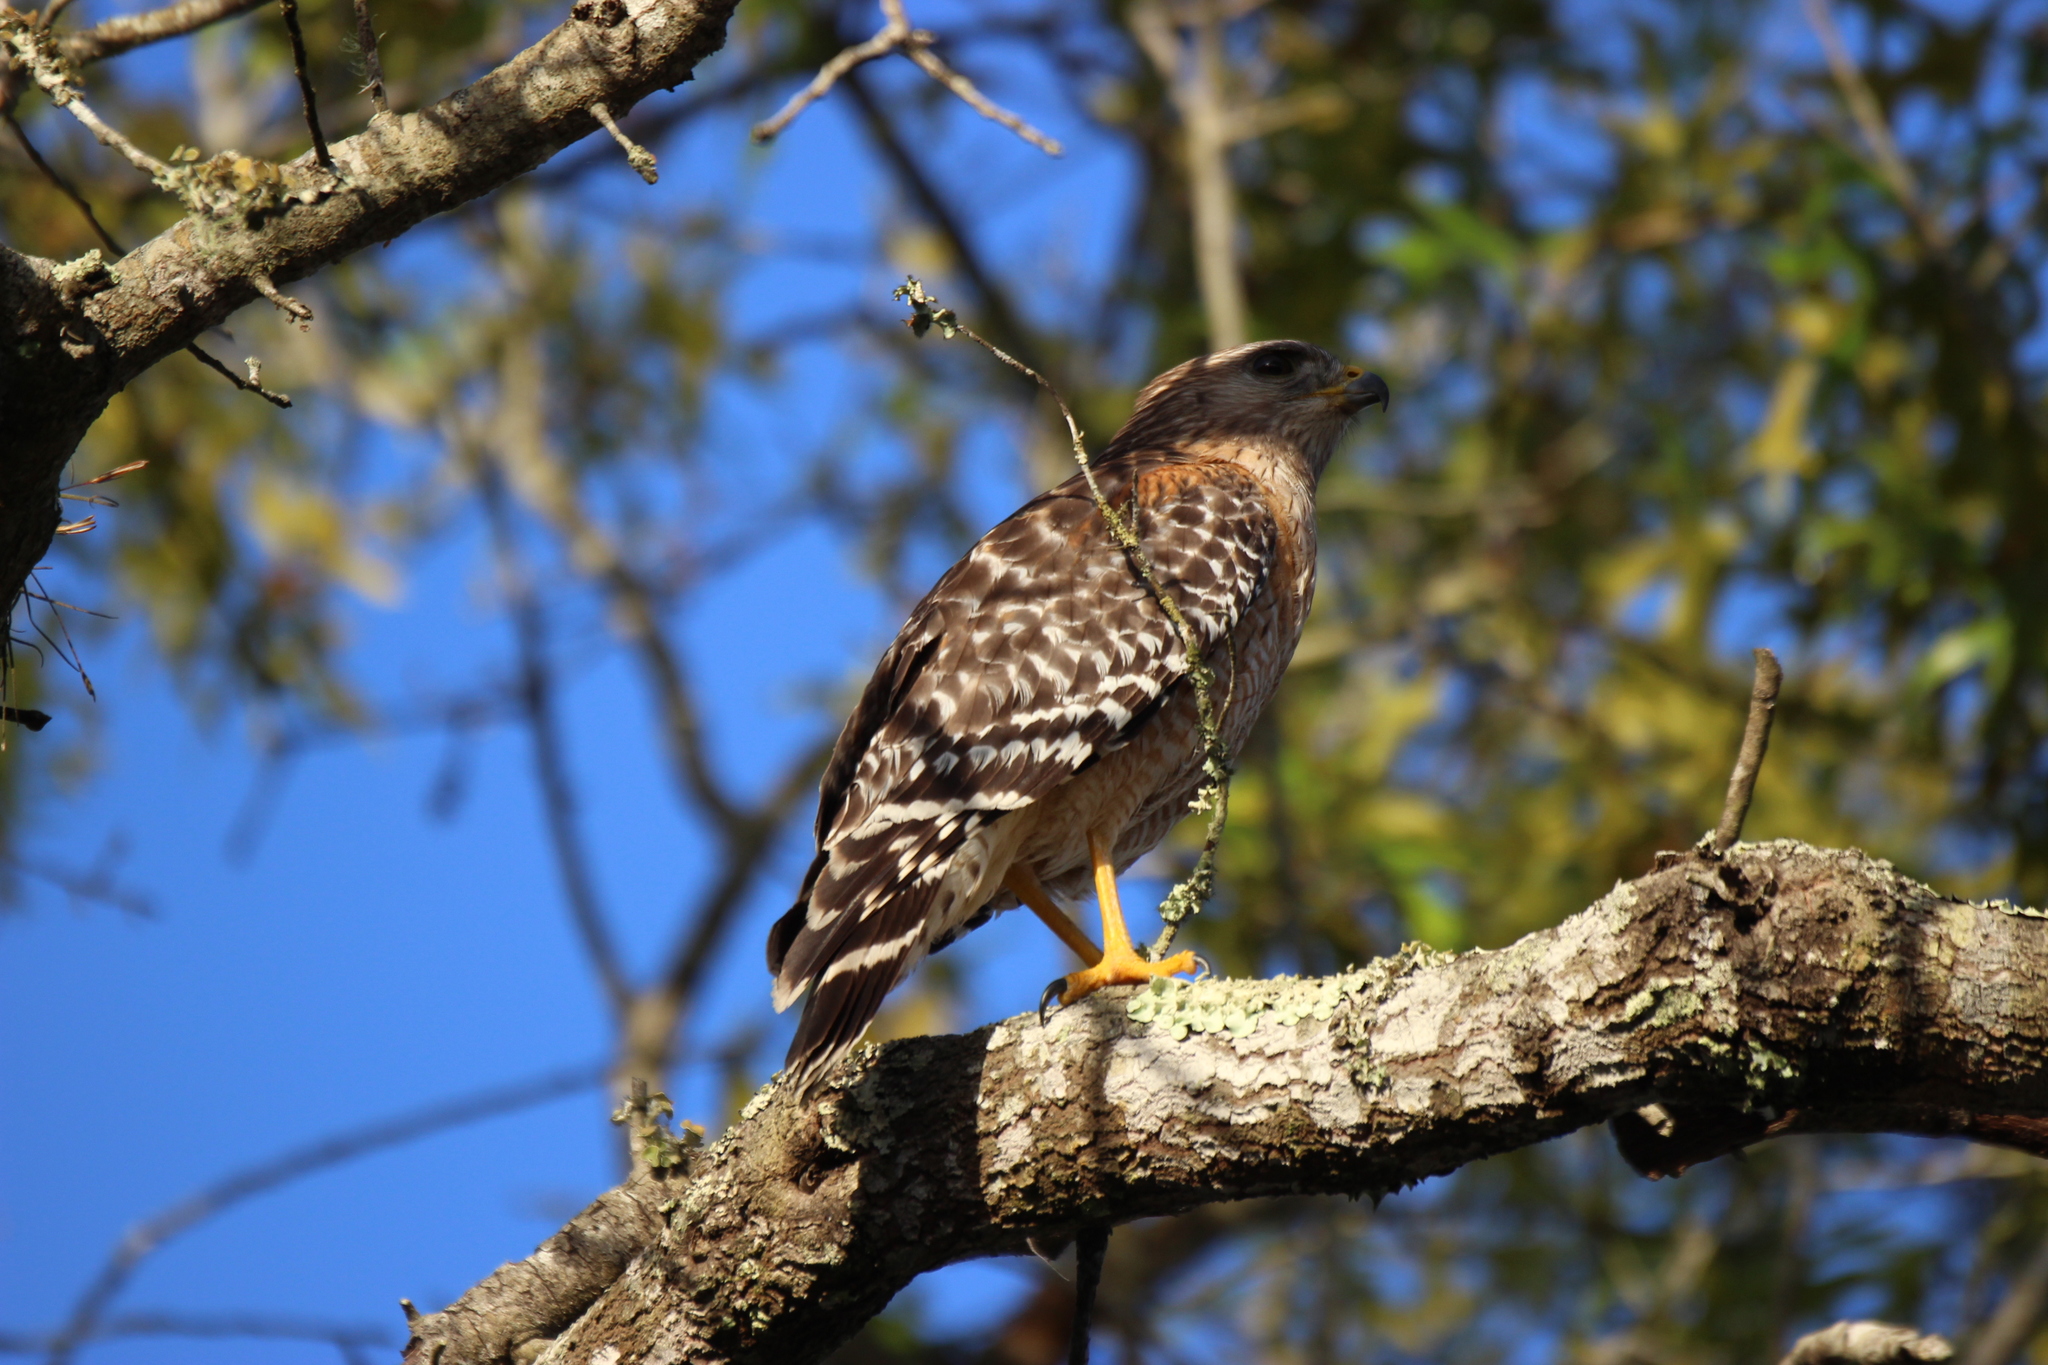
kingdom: Animalia
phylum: Chordata
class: Aves
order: Accipitriformes
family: Accipitridae
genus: Buteo
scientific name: Buteo lineatus
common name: Red-shouldered hawk
